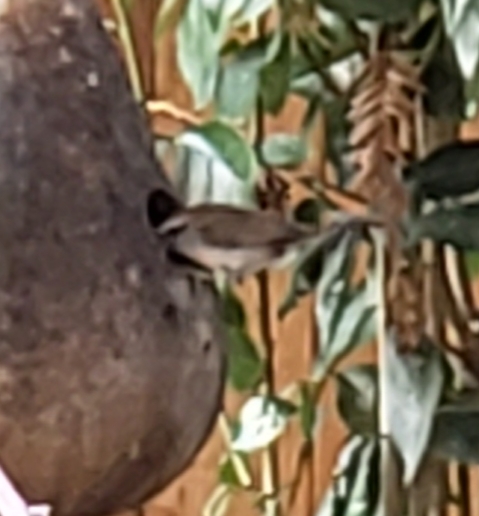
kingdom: Animalia
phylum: Chordata
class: Aves
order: Passeriformes
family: Troglodytidae
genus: Thryomanes
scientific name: Thryomanes bewickii
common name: Bewick's wren
